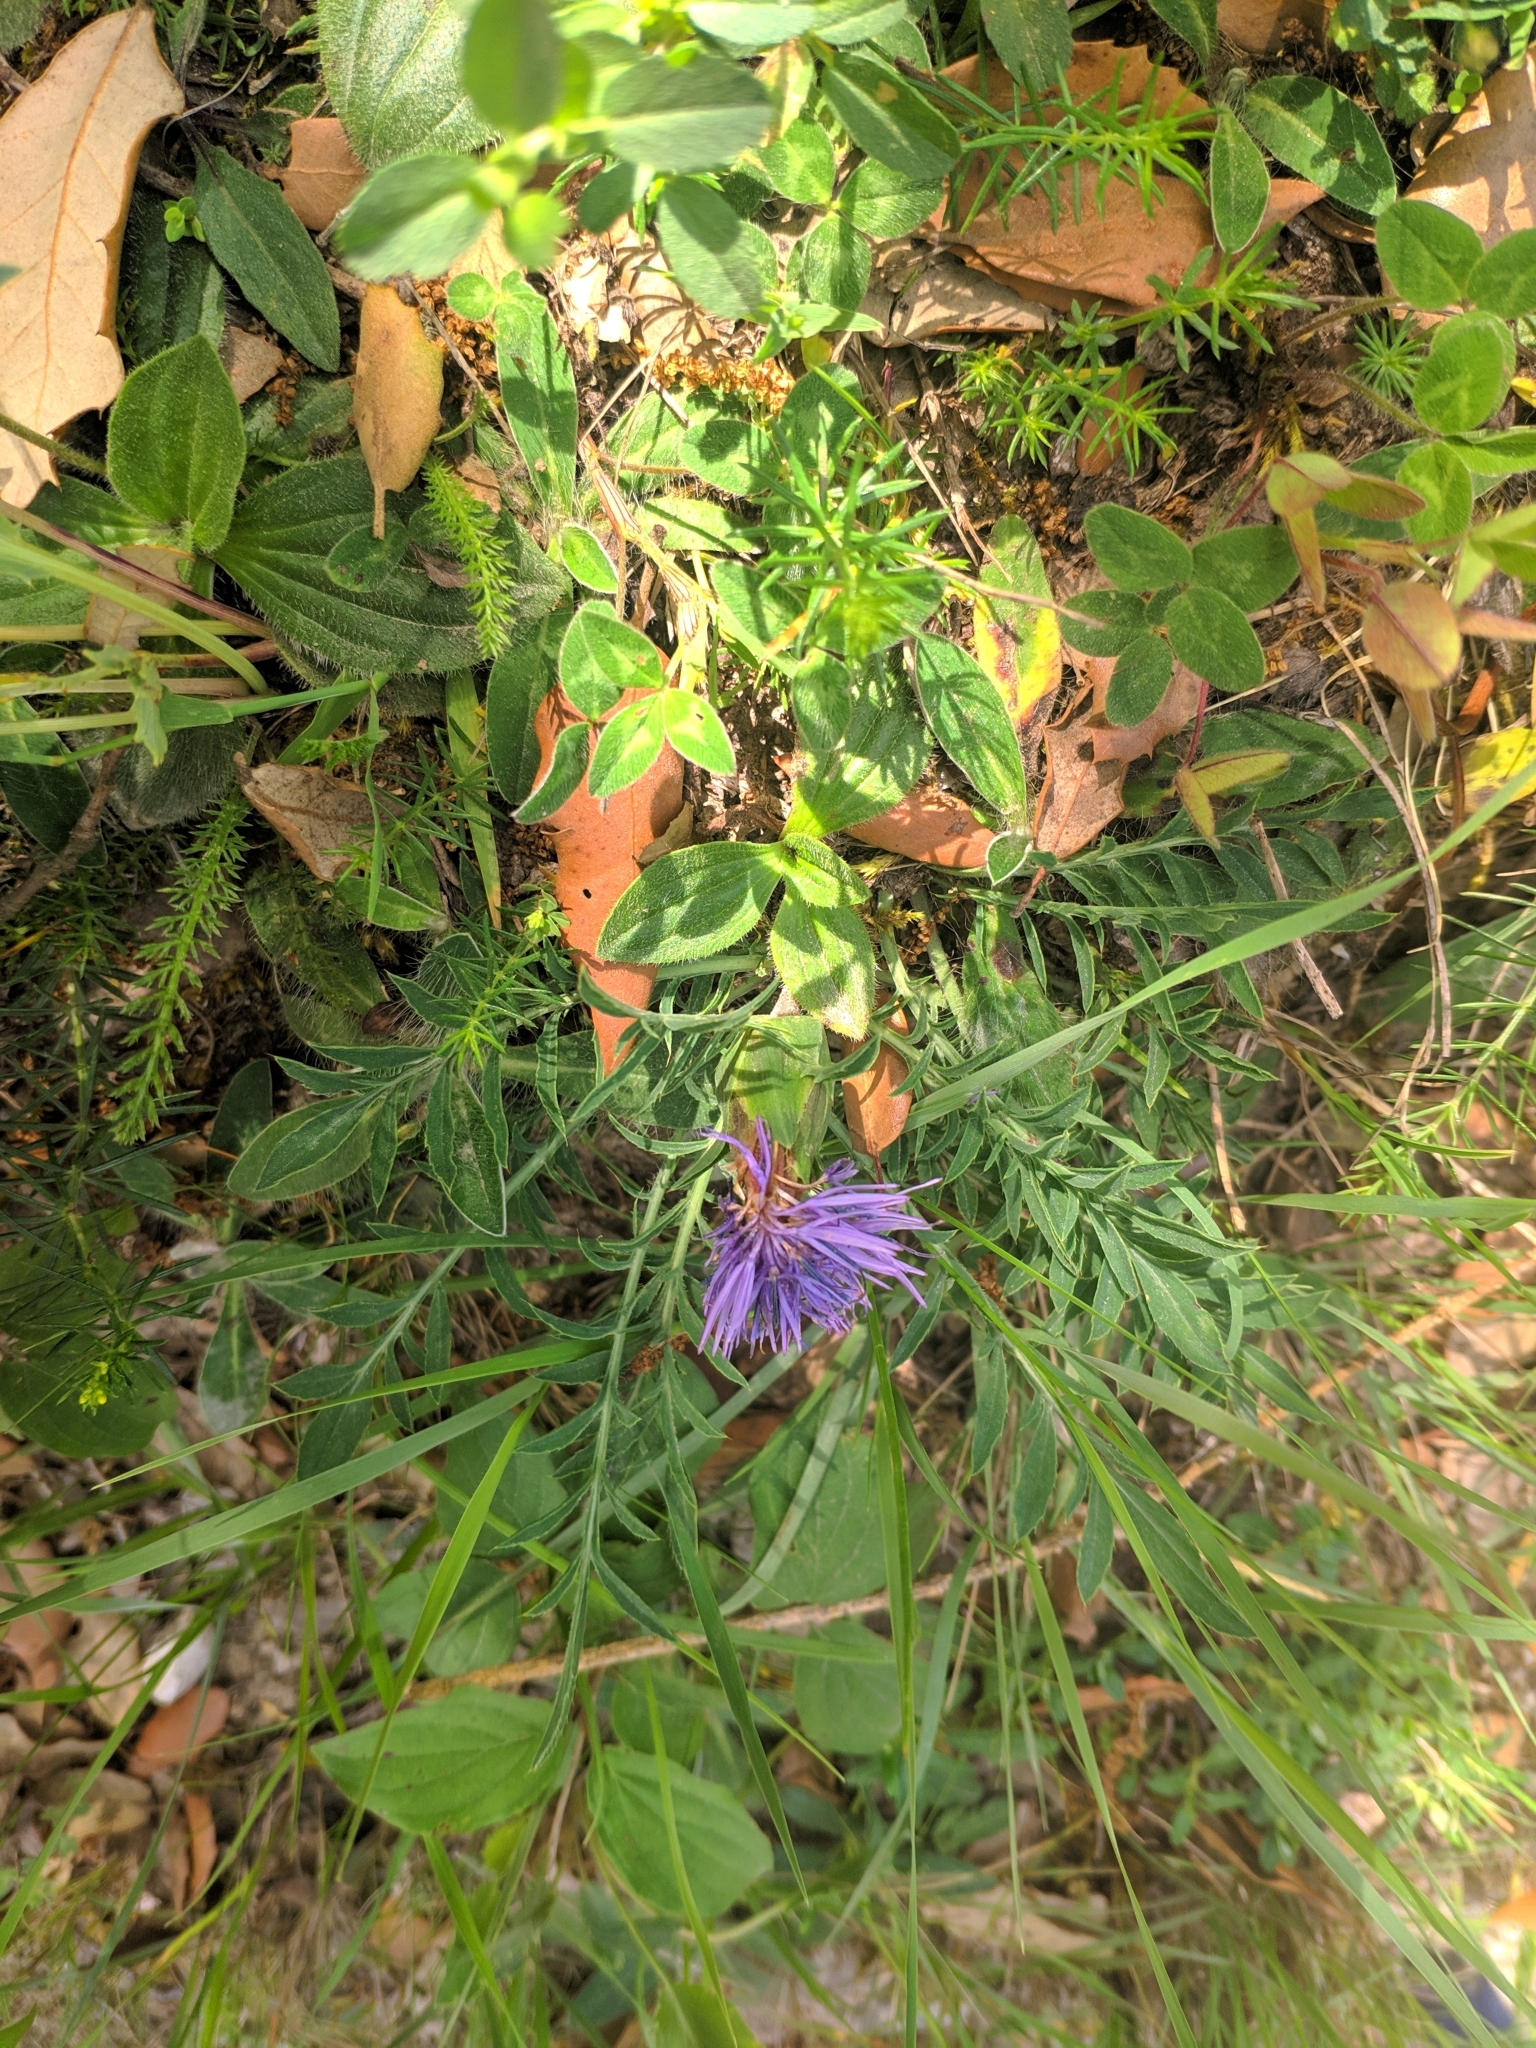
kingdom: Plantae
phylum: Tracheophyta
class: Magnoliopsida
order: Asterales
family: Asteraceae
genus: Carduncellus
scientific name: Carduncellus mitissimus
